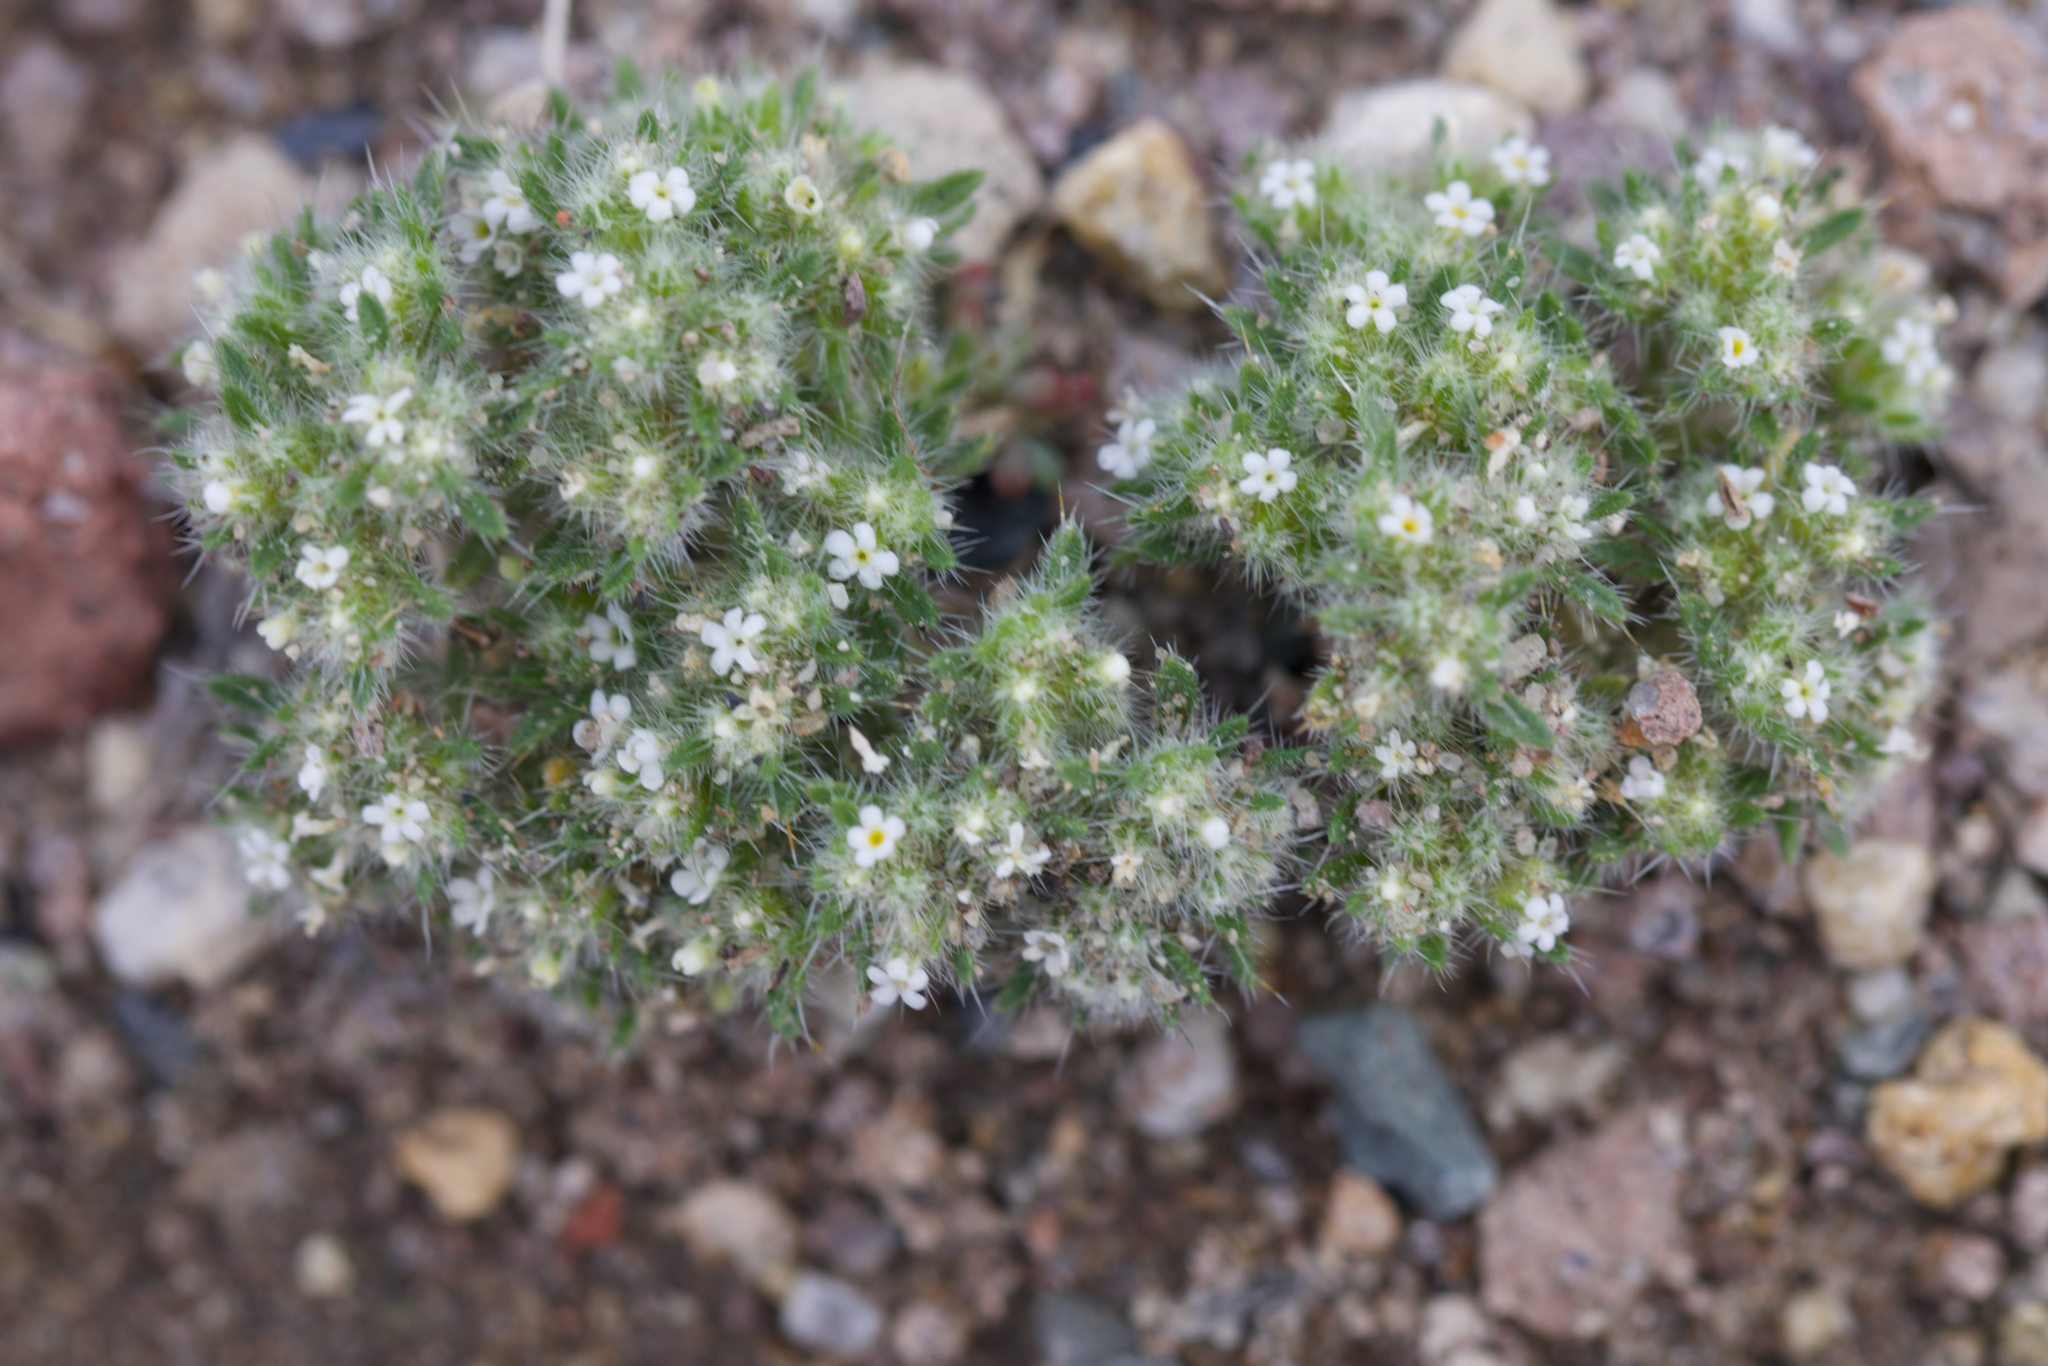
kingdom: Plantae
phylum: Tracheophyta
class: Magnoliopsida
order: Boraginales
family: Boraginaceae
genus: Greeneocharis
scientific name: Greeneocharis circumscissa
